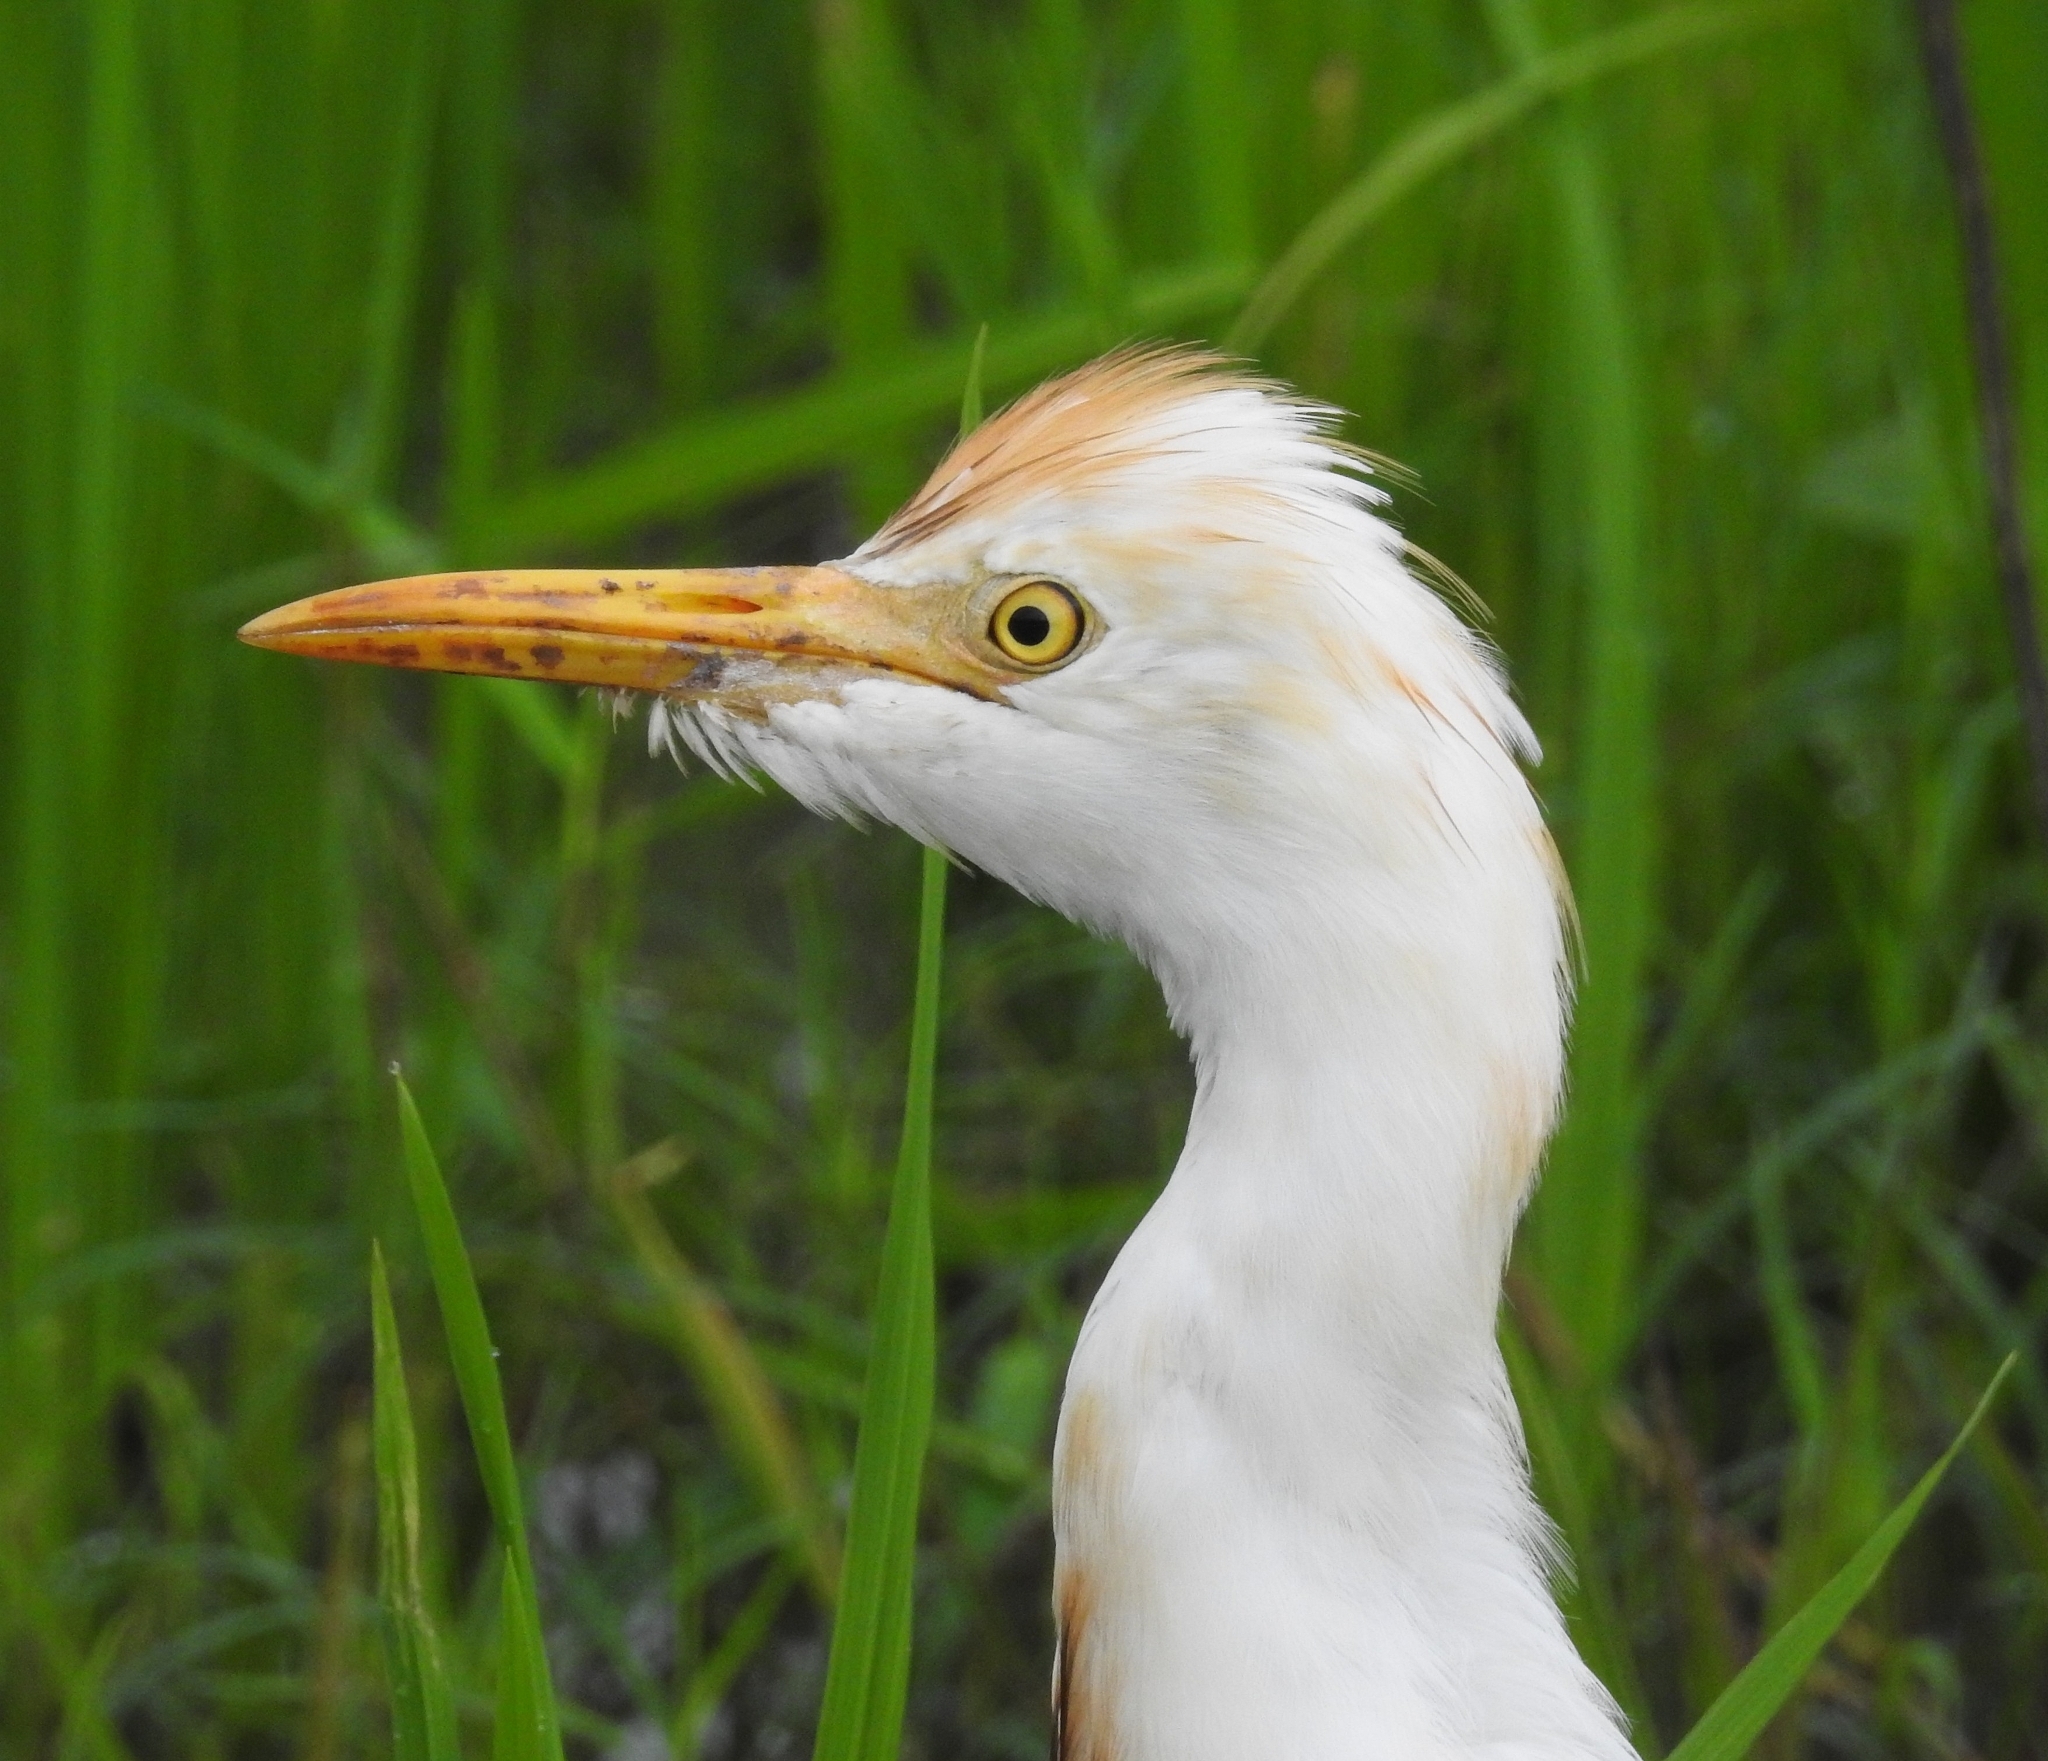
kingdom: Animalia
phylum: Chordata
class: Aves
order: Pelecaniformes
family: Ardeidae
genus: Bubulcus
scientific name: Bubulcus coromandus
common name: Eastern cattle egret
